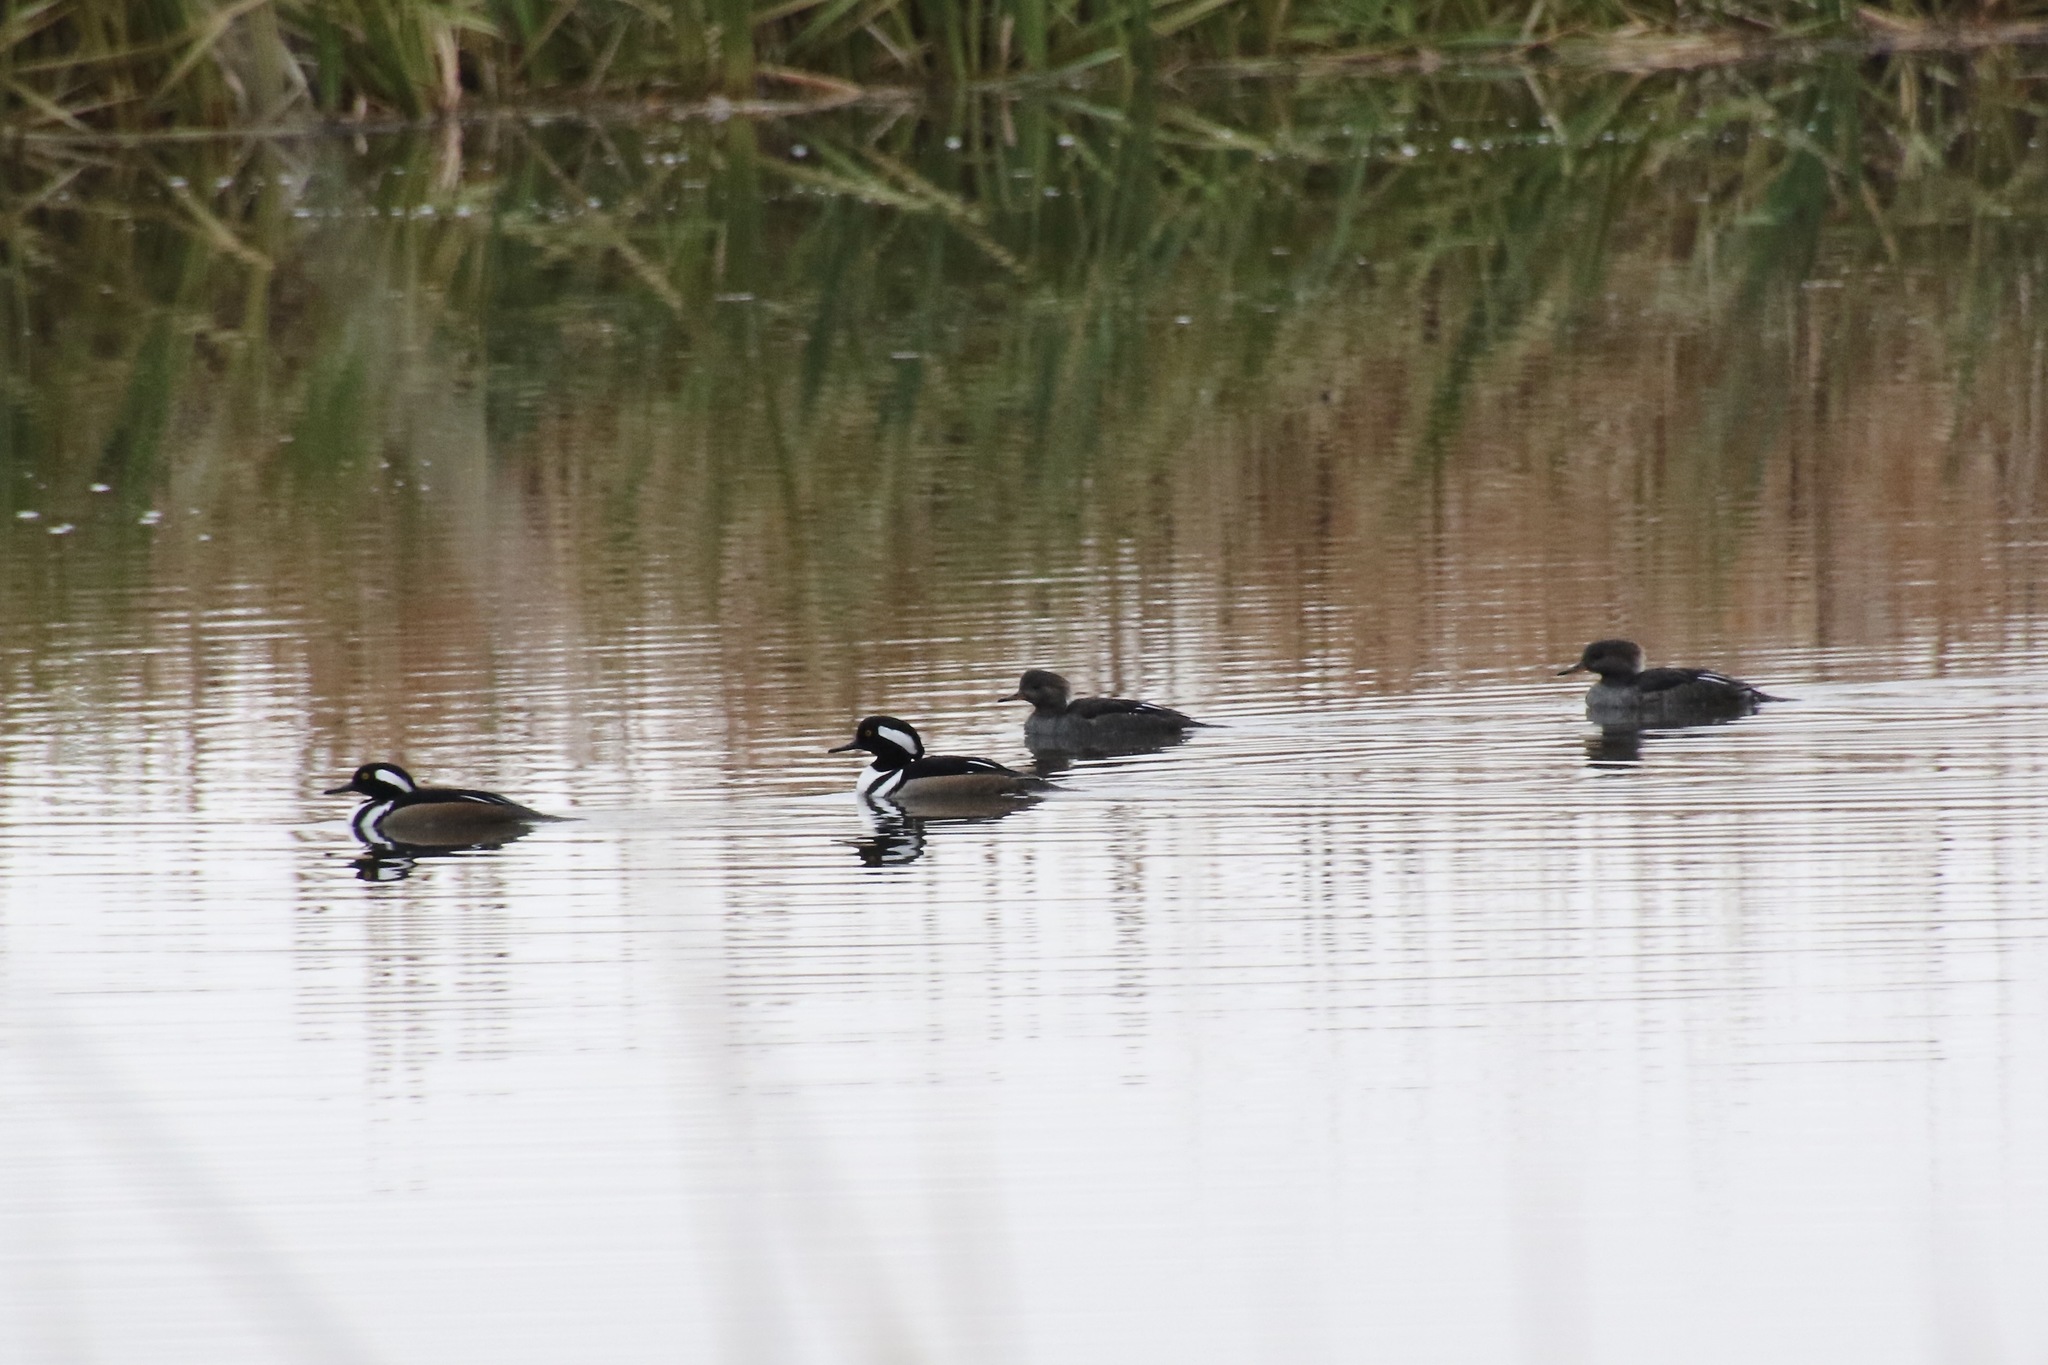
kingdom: Animalia
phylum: Chordata
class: Aves
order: Anseriformes
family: Anatidae
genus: Lophodytes
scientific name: Lophodytes cucullatus
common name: Hooded merganser
